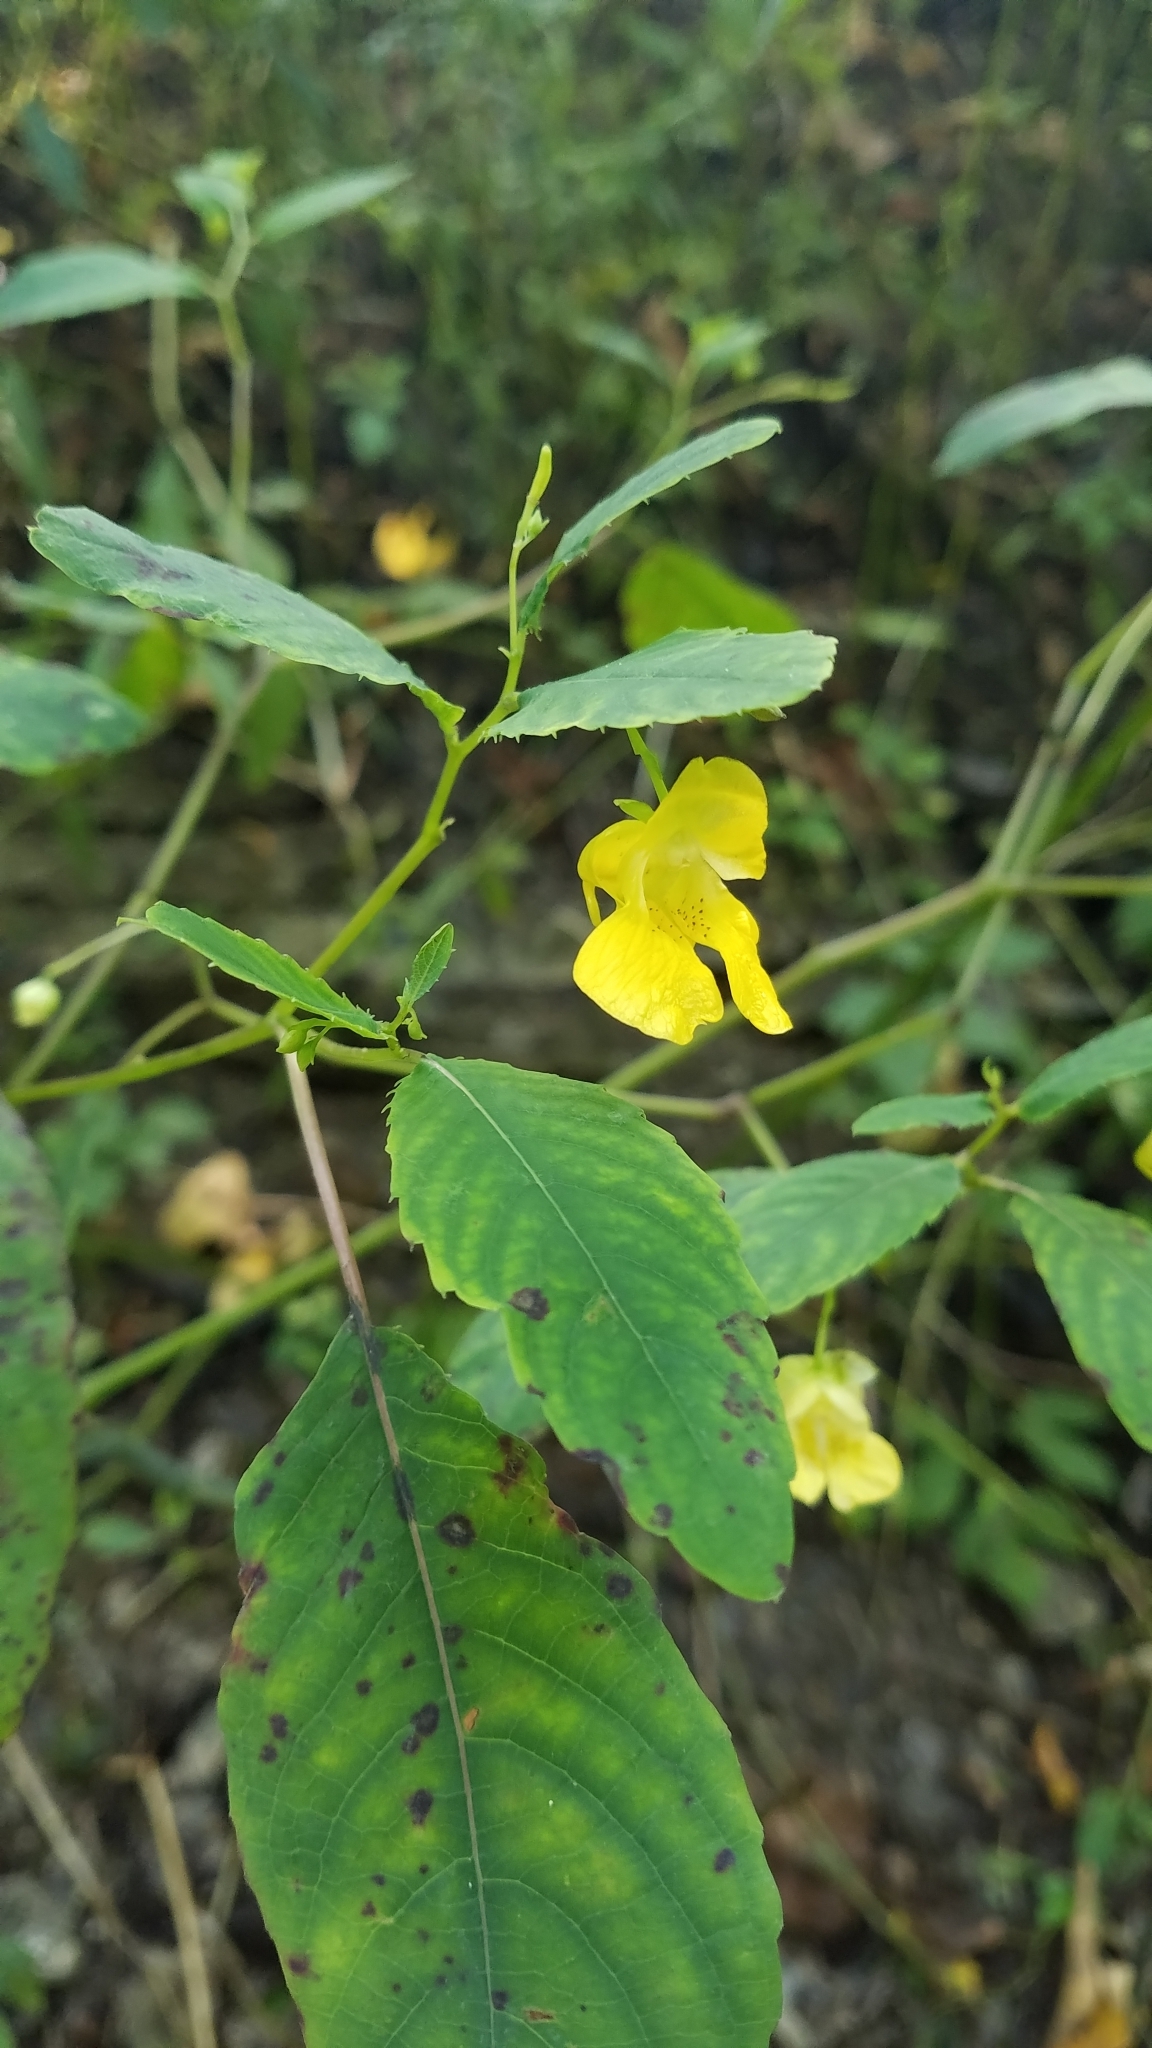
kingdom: Plantae
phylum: Tracheophyta
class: Magnoliopsida
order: Ericales
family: Balsaminaceae
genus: Impatiens
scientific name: Impatiens pallida
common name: Pale snapweed
